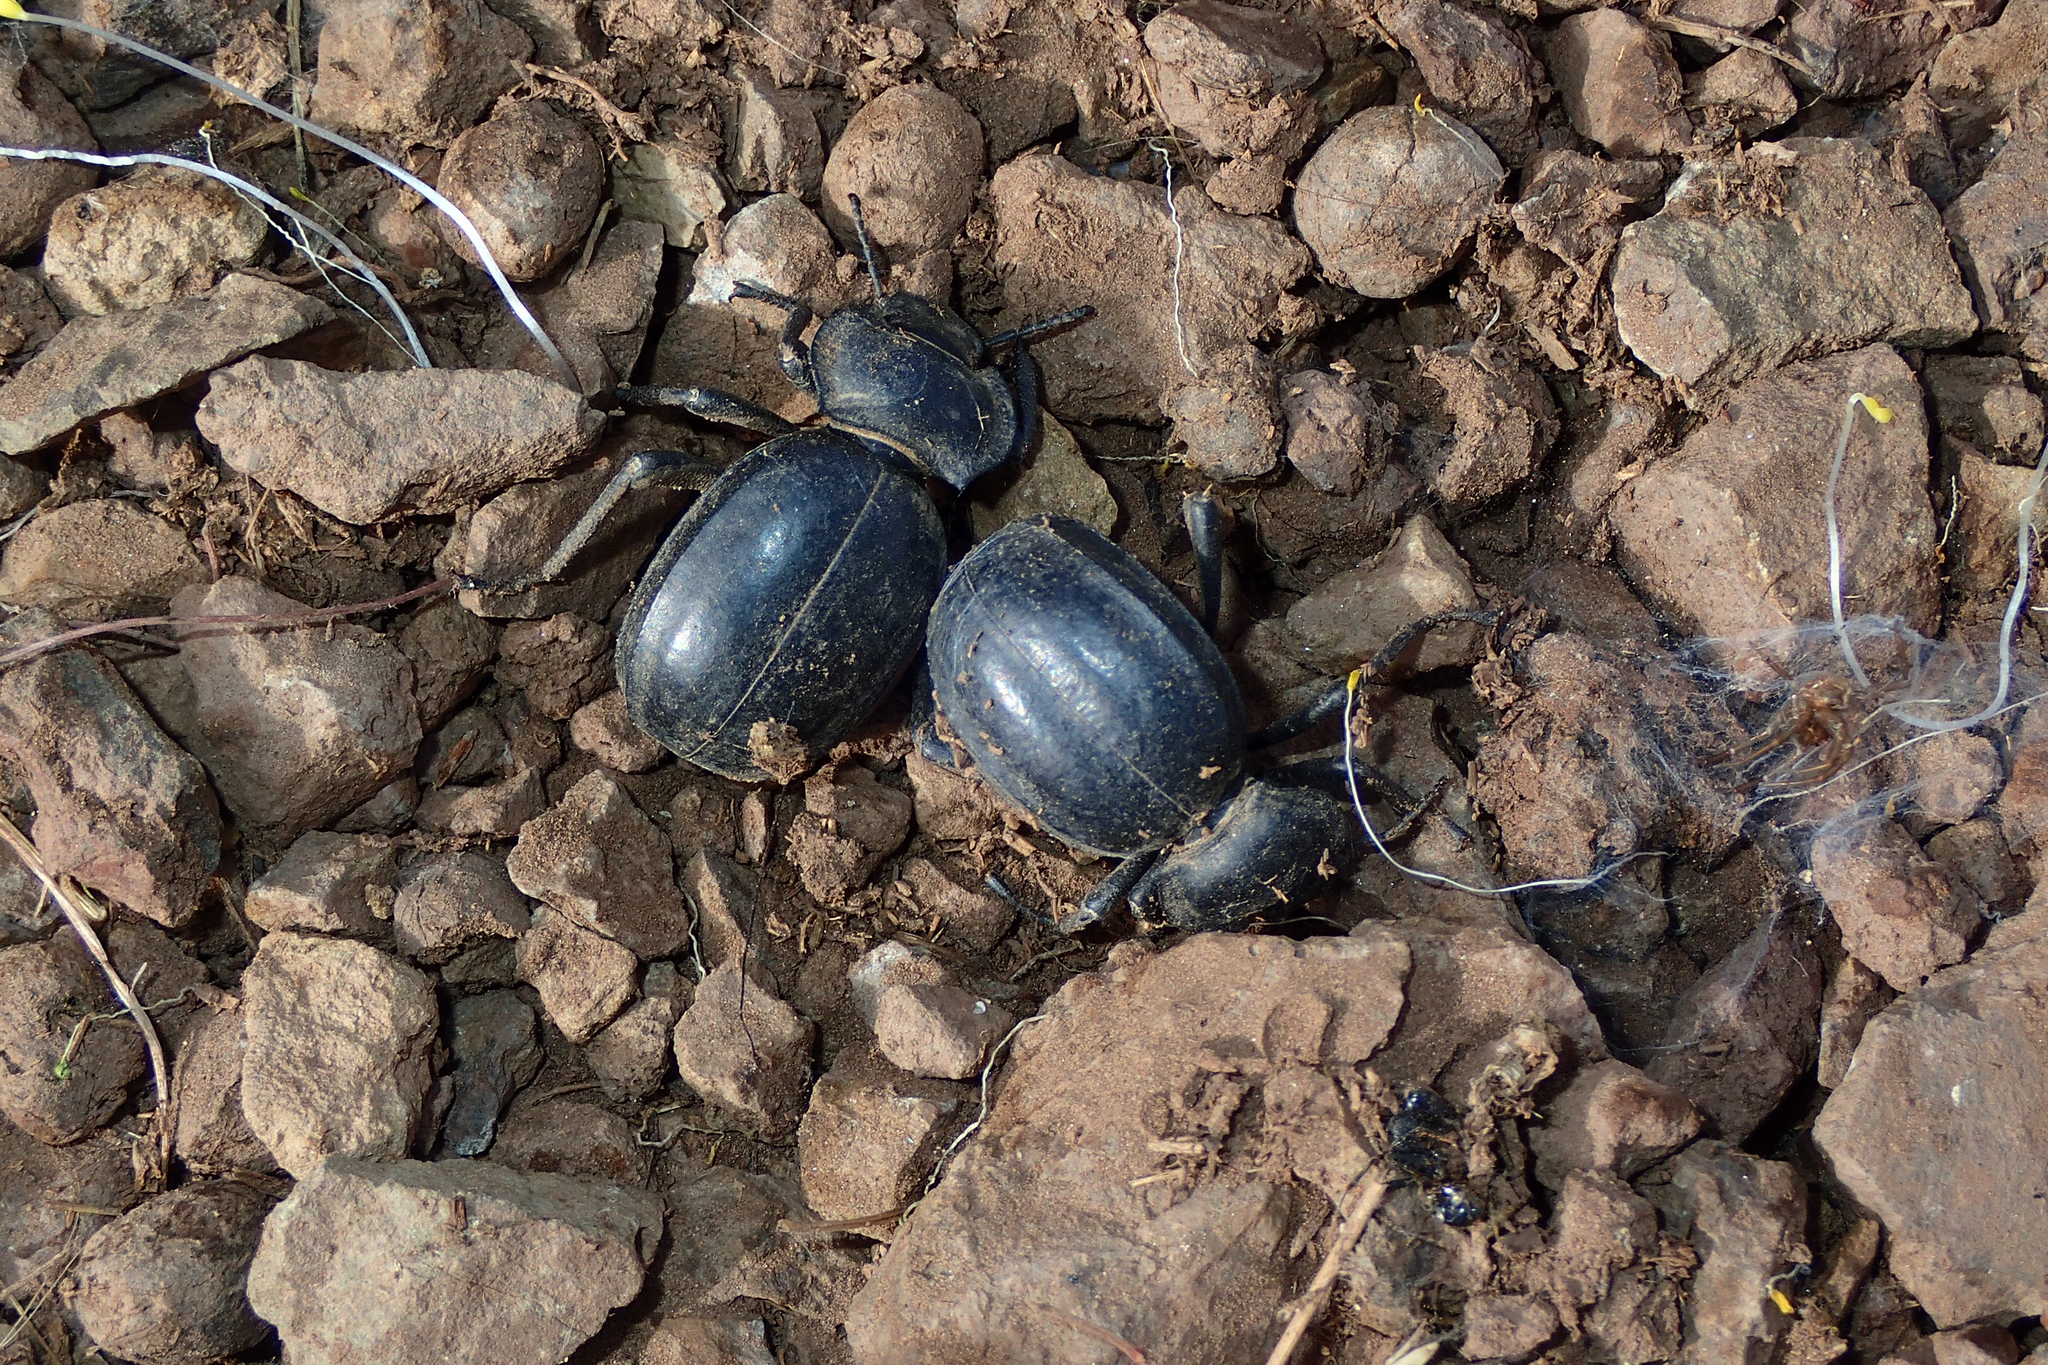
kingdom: Animalia
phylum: Arthropoda
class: Insecta
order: Coleoptera
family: Tenebrionidae
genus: Morica
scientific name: Morica planata
